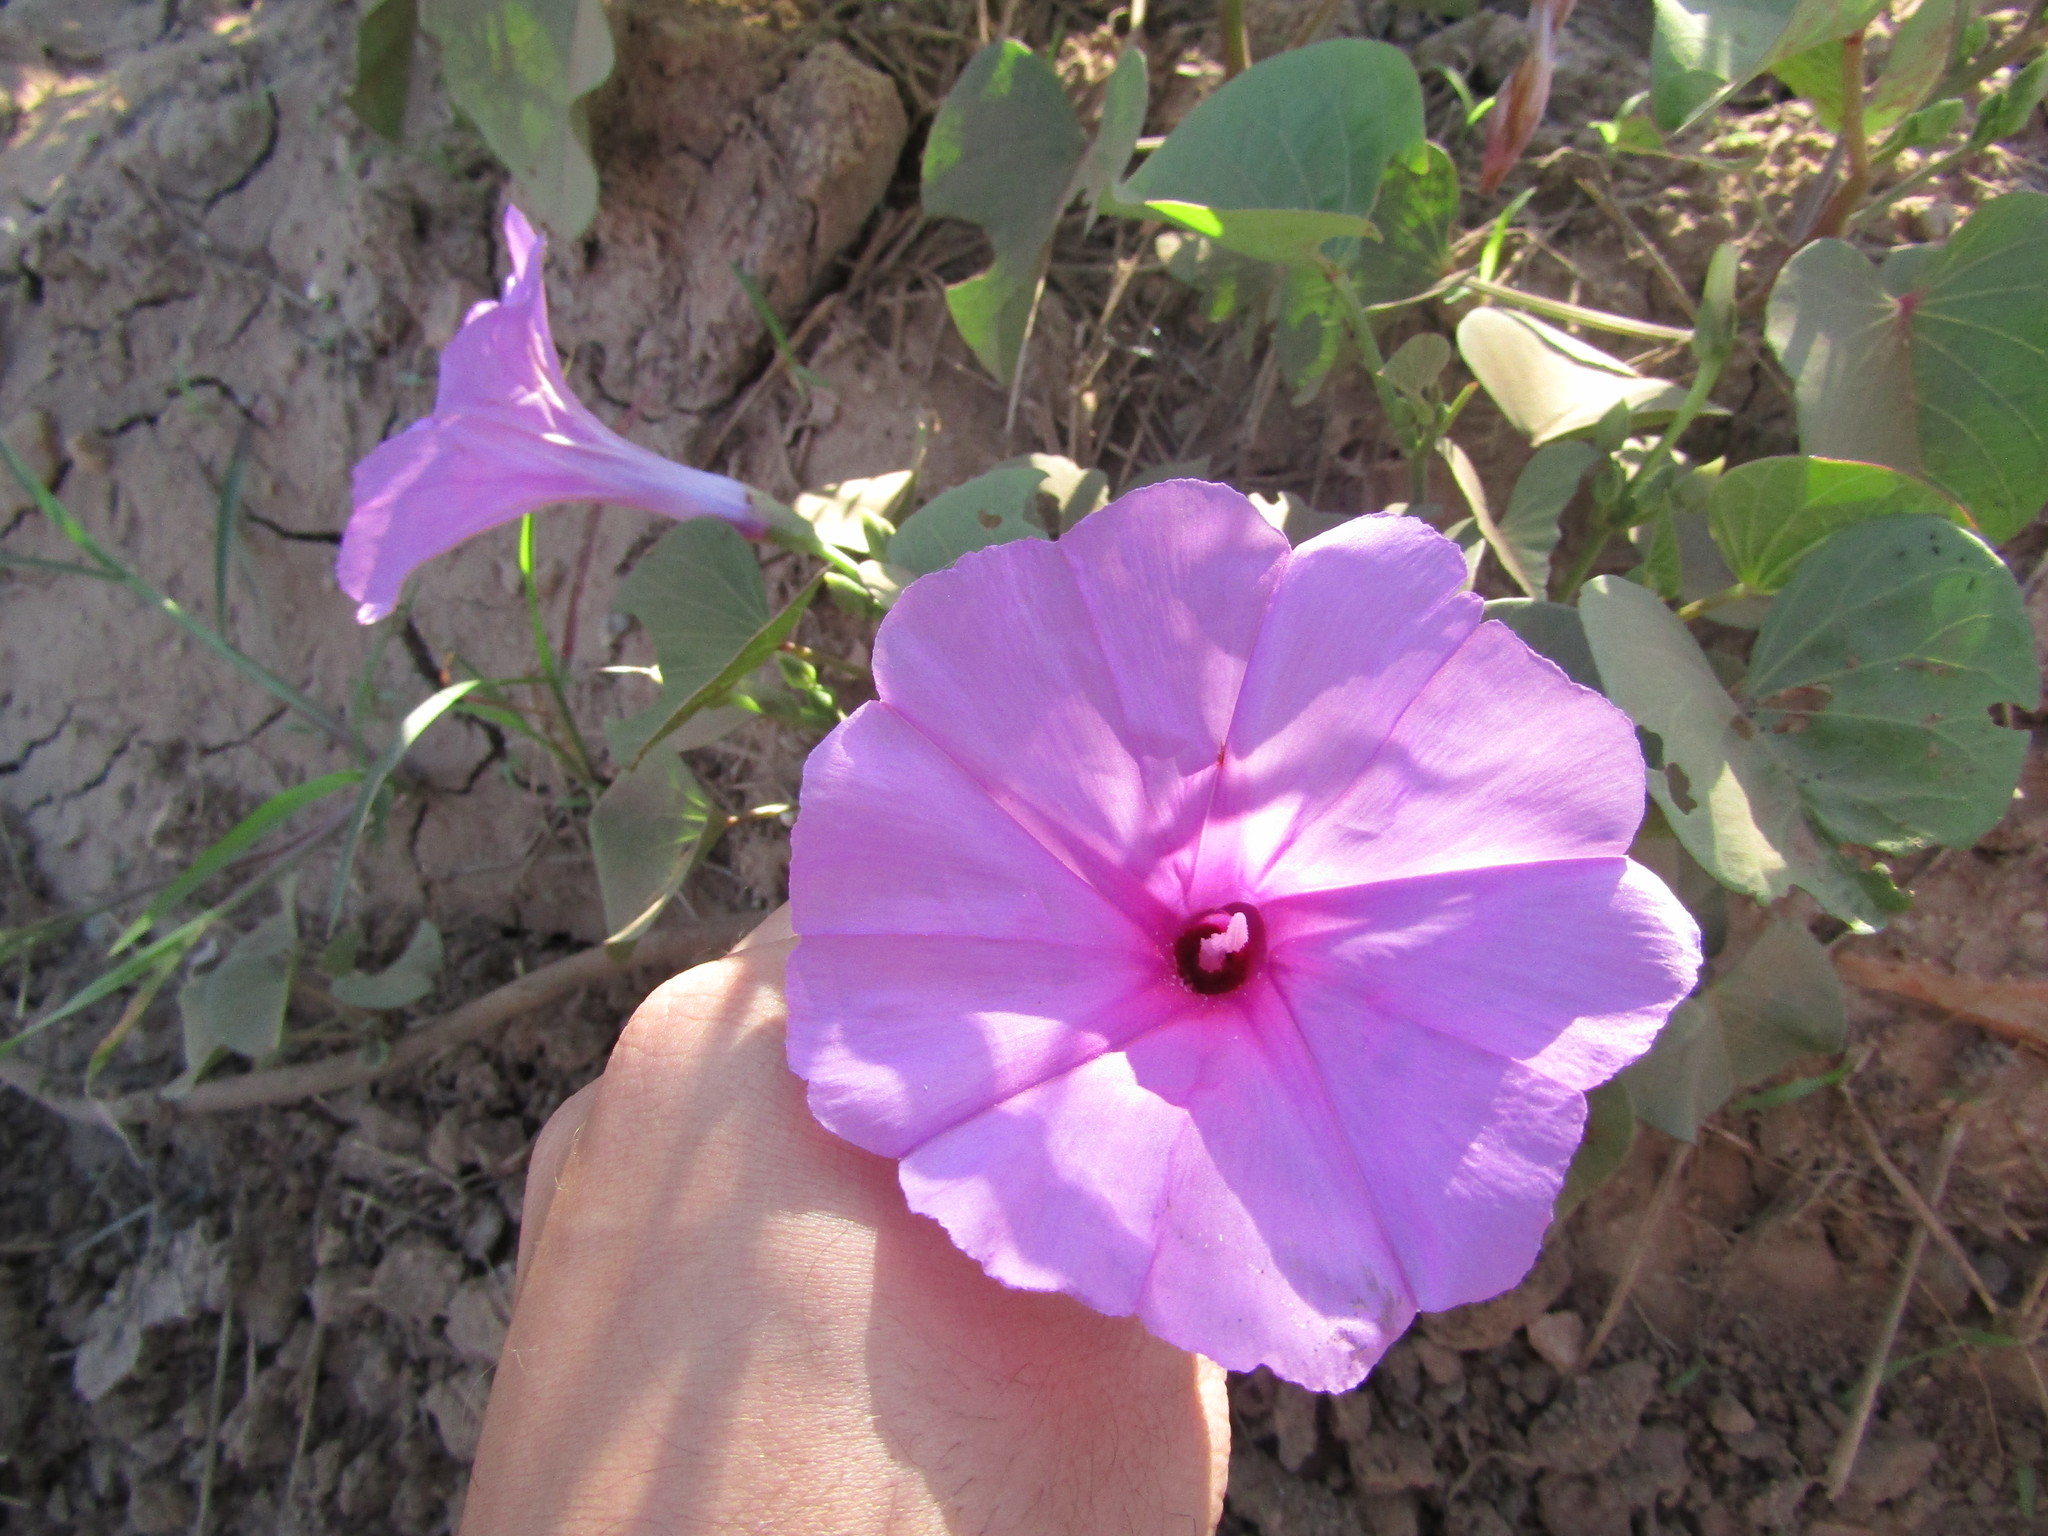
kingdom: Plantae
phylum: Tracheophyta
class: Magnoliopsida
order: Solanales
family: Convolvulaceae
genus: Ipomoea
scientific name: Ipomoea asarifolia
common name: Ginger-leaf morning-glory
